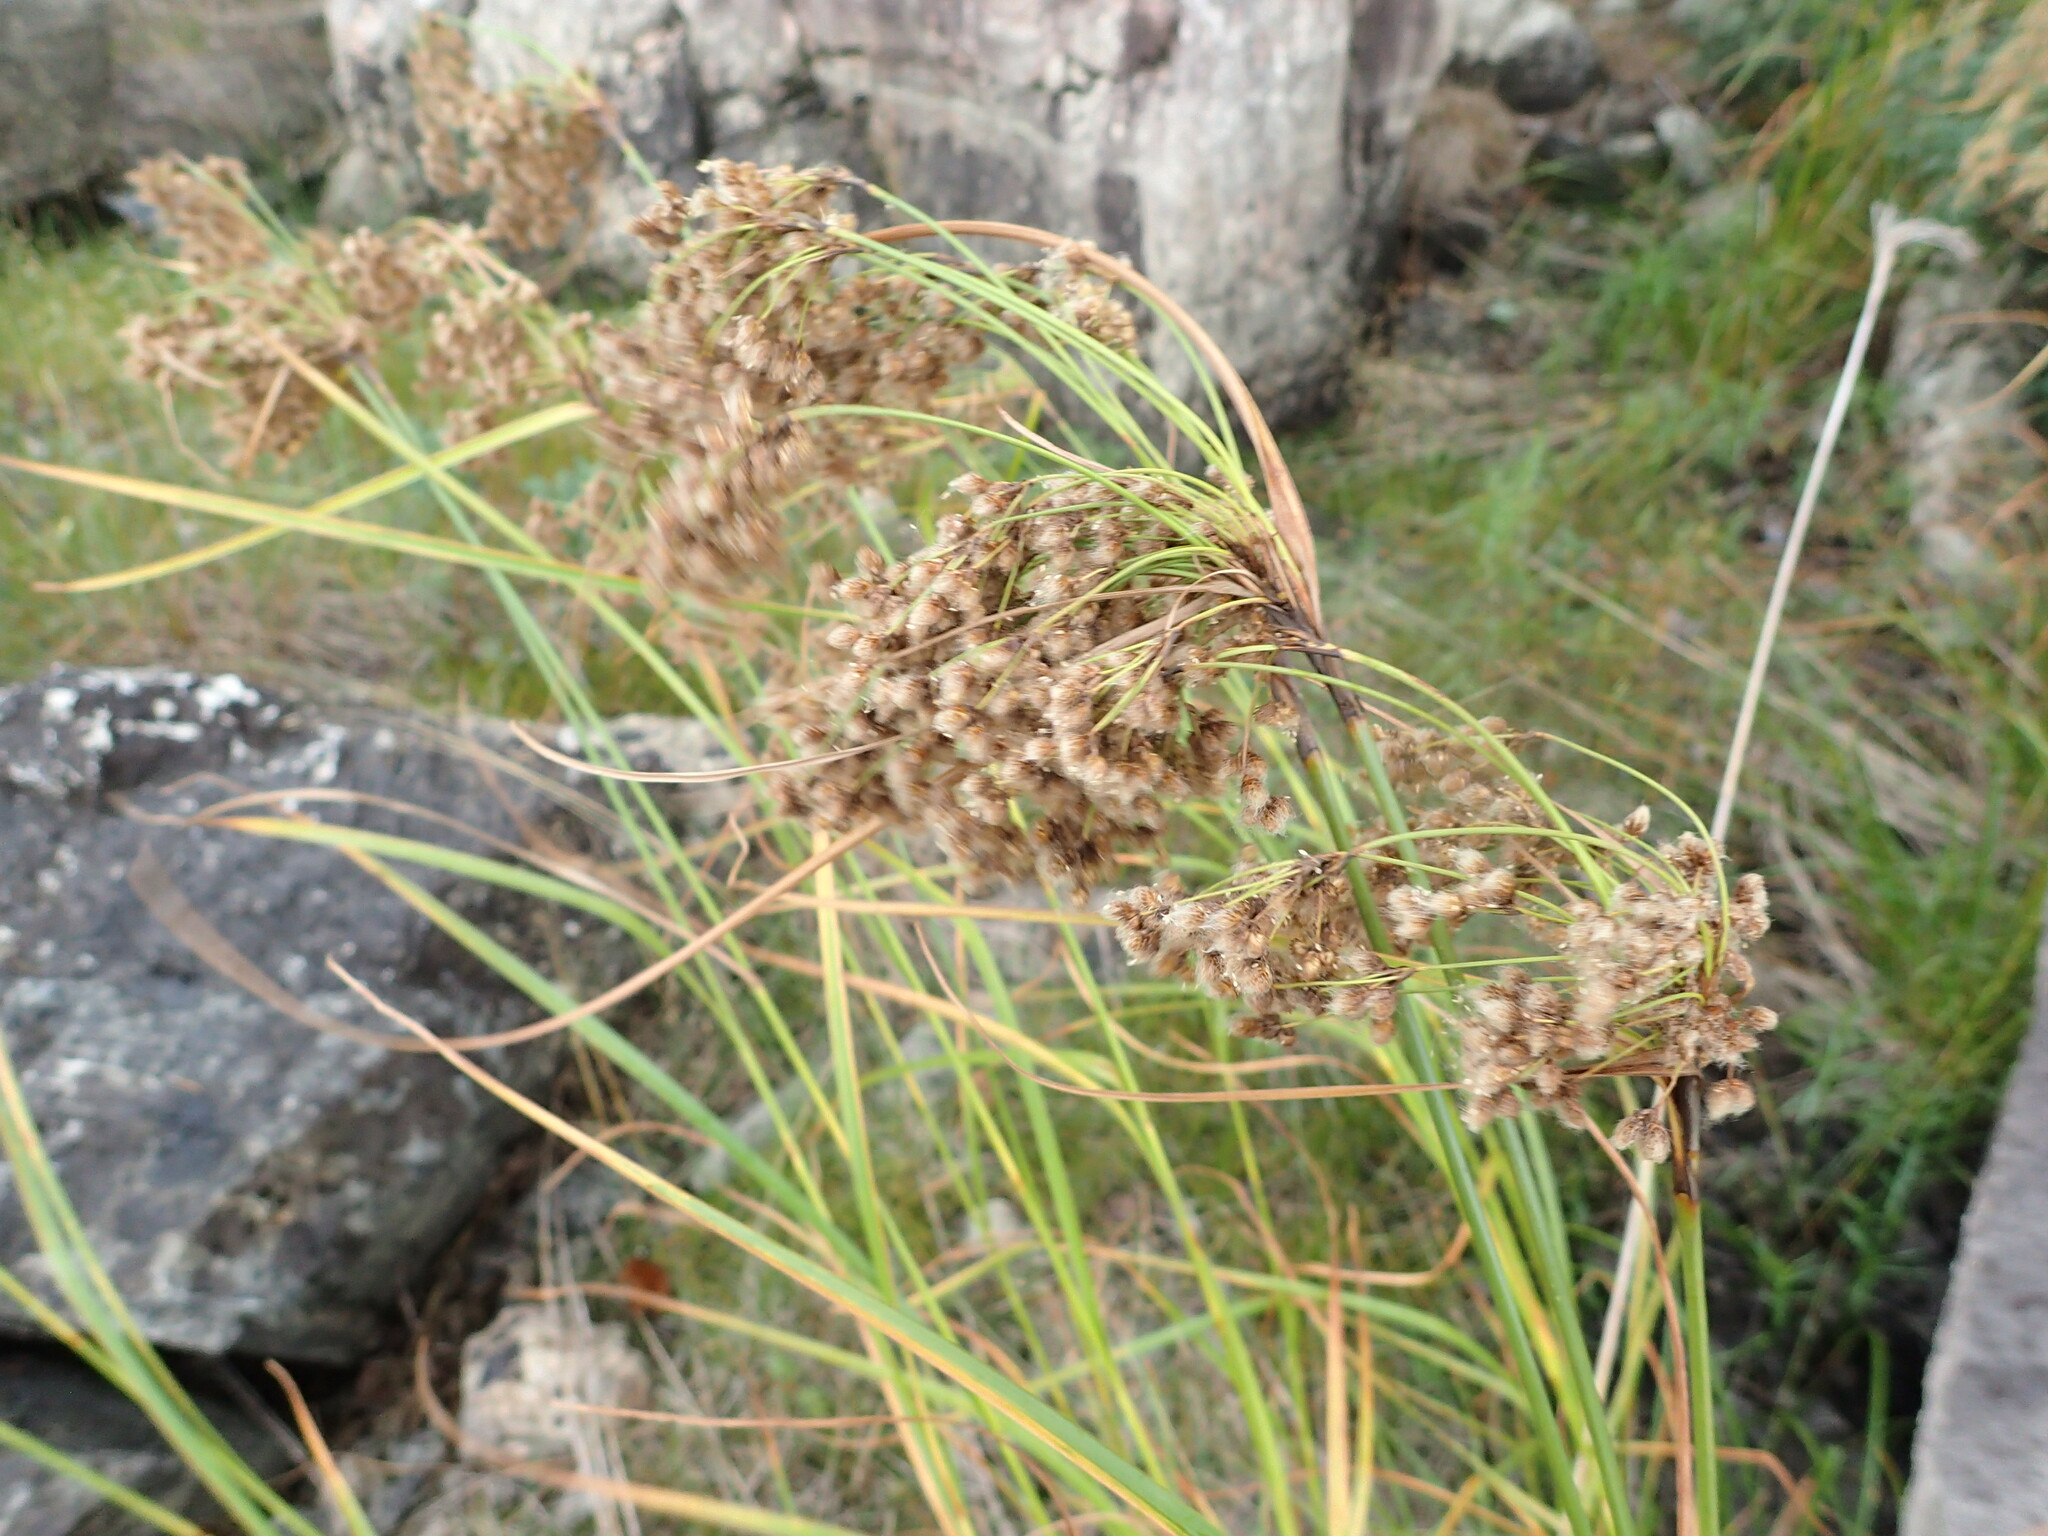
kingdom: Plantae
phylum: Tracheophyta
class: Liliopsida
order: Poales
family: Cyperaceae
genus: Scirpus
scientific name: Scirpus cyperinus
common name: Black-sheathed bulrush
